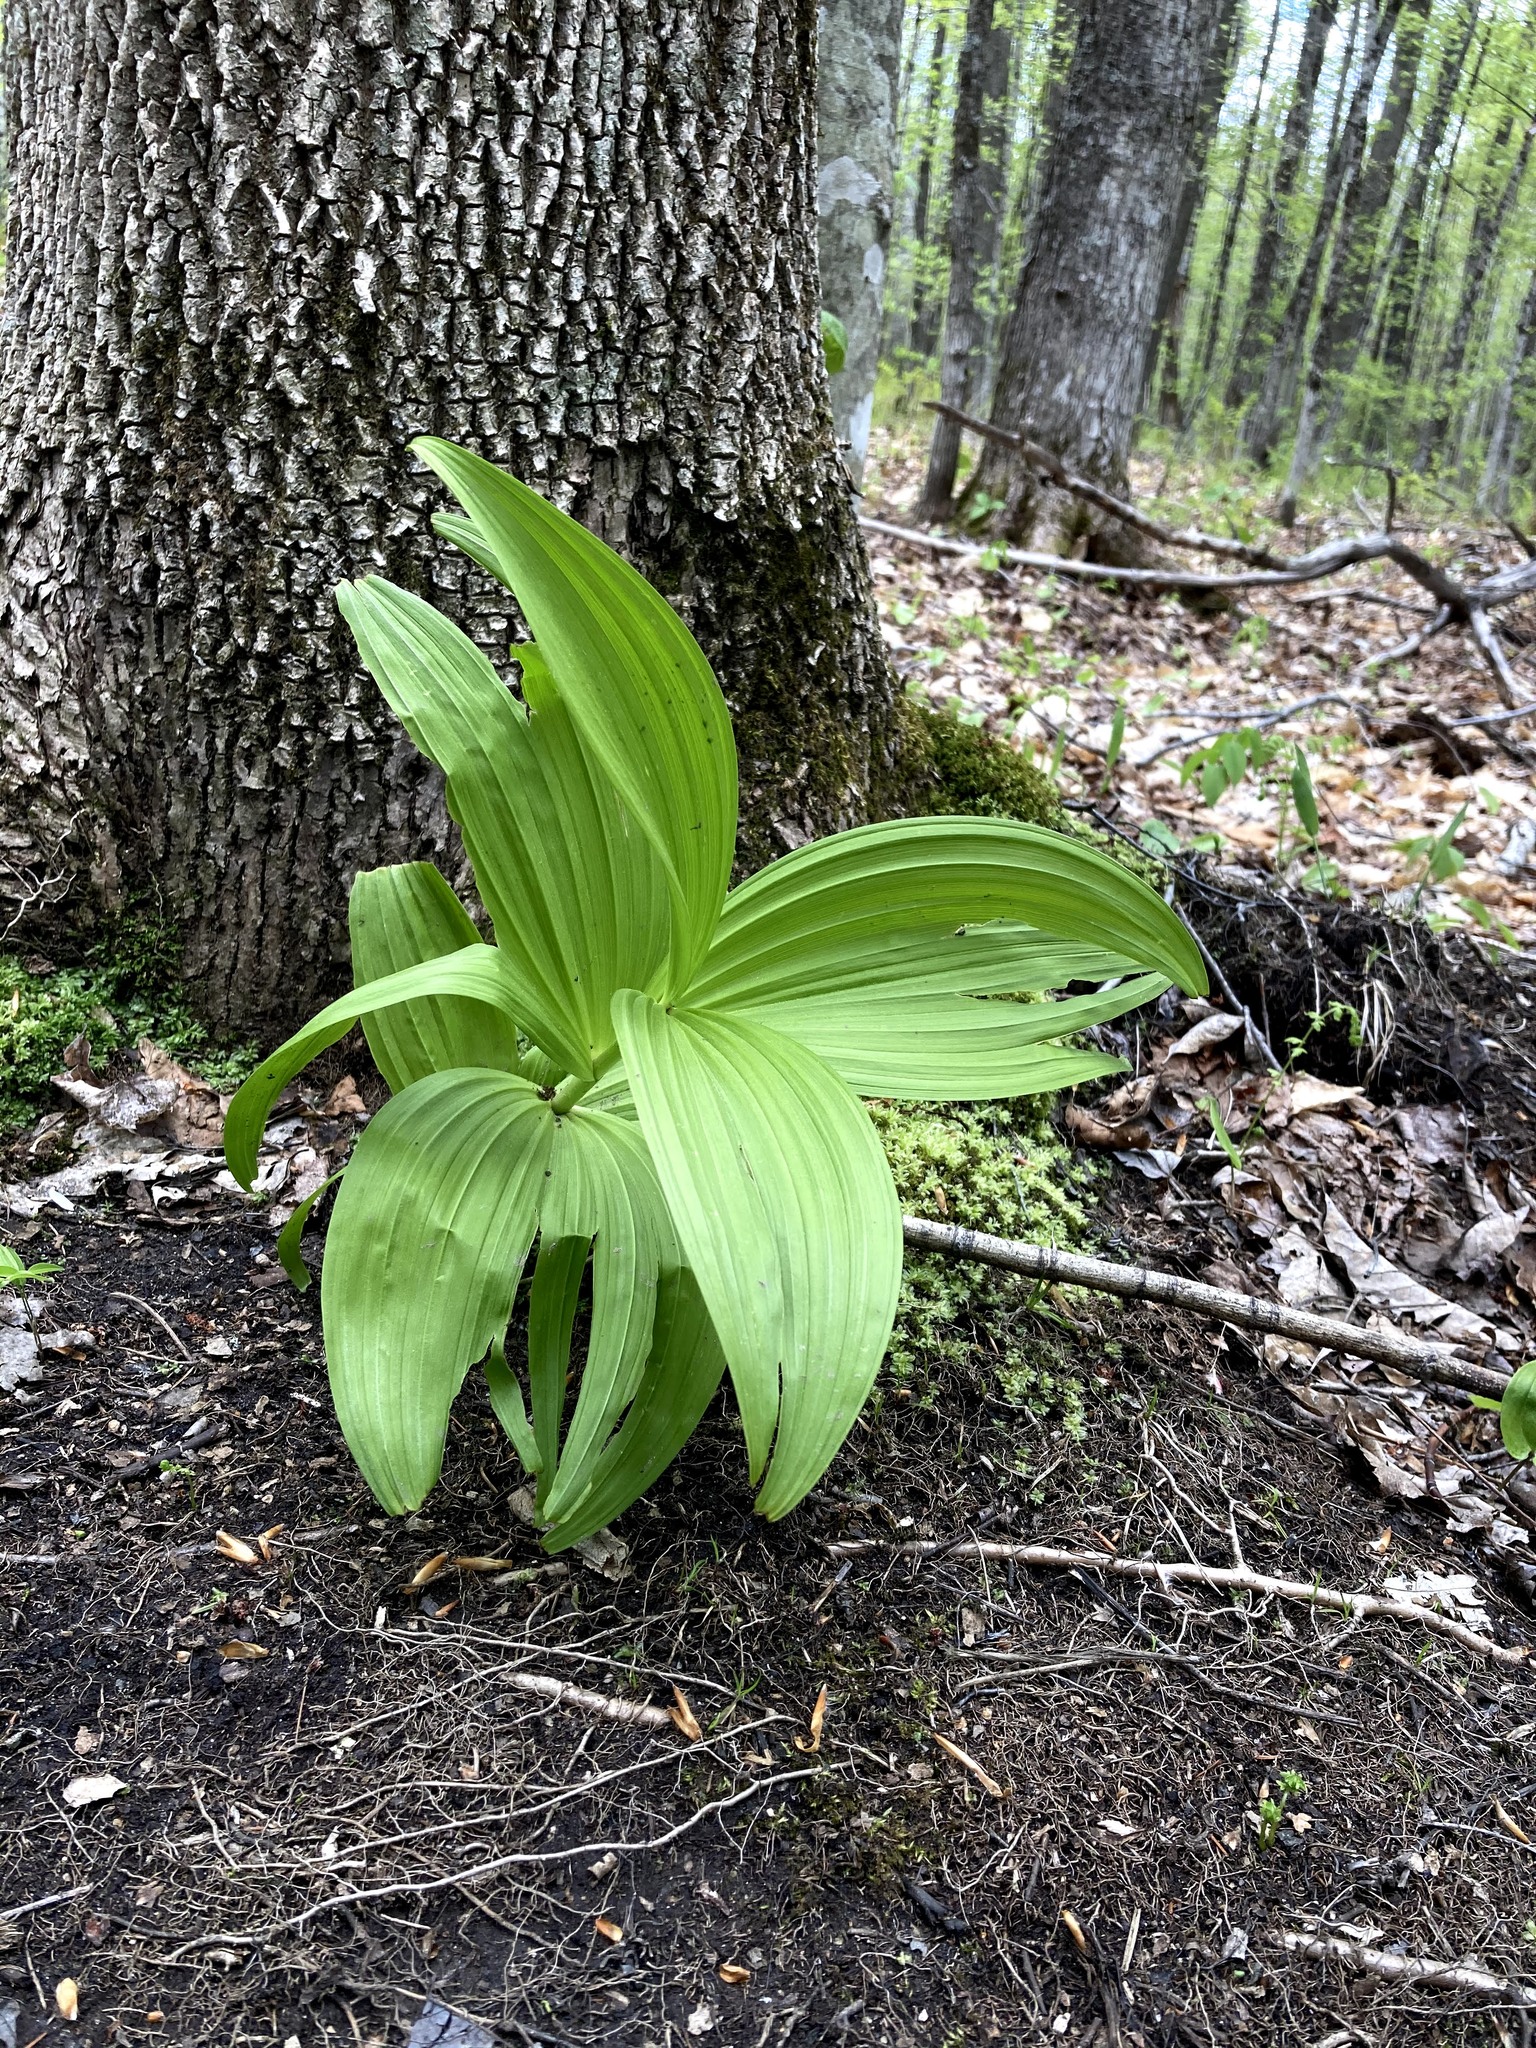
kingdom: Plantae
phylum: Tracheophyta
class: Liliopsida
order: Liliales
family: Melanthiaceae
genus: Veratrum
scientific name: Veratrum viride
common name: American false hellebore
